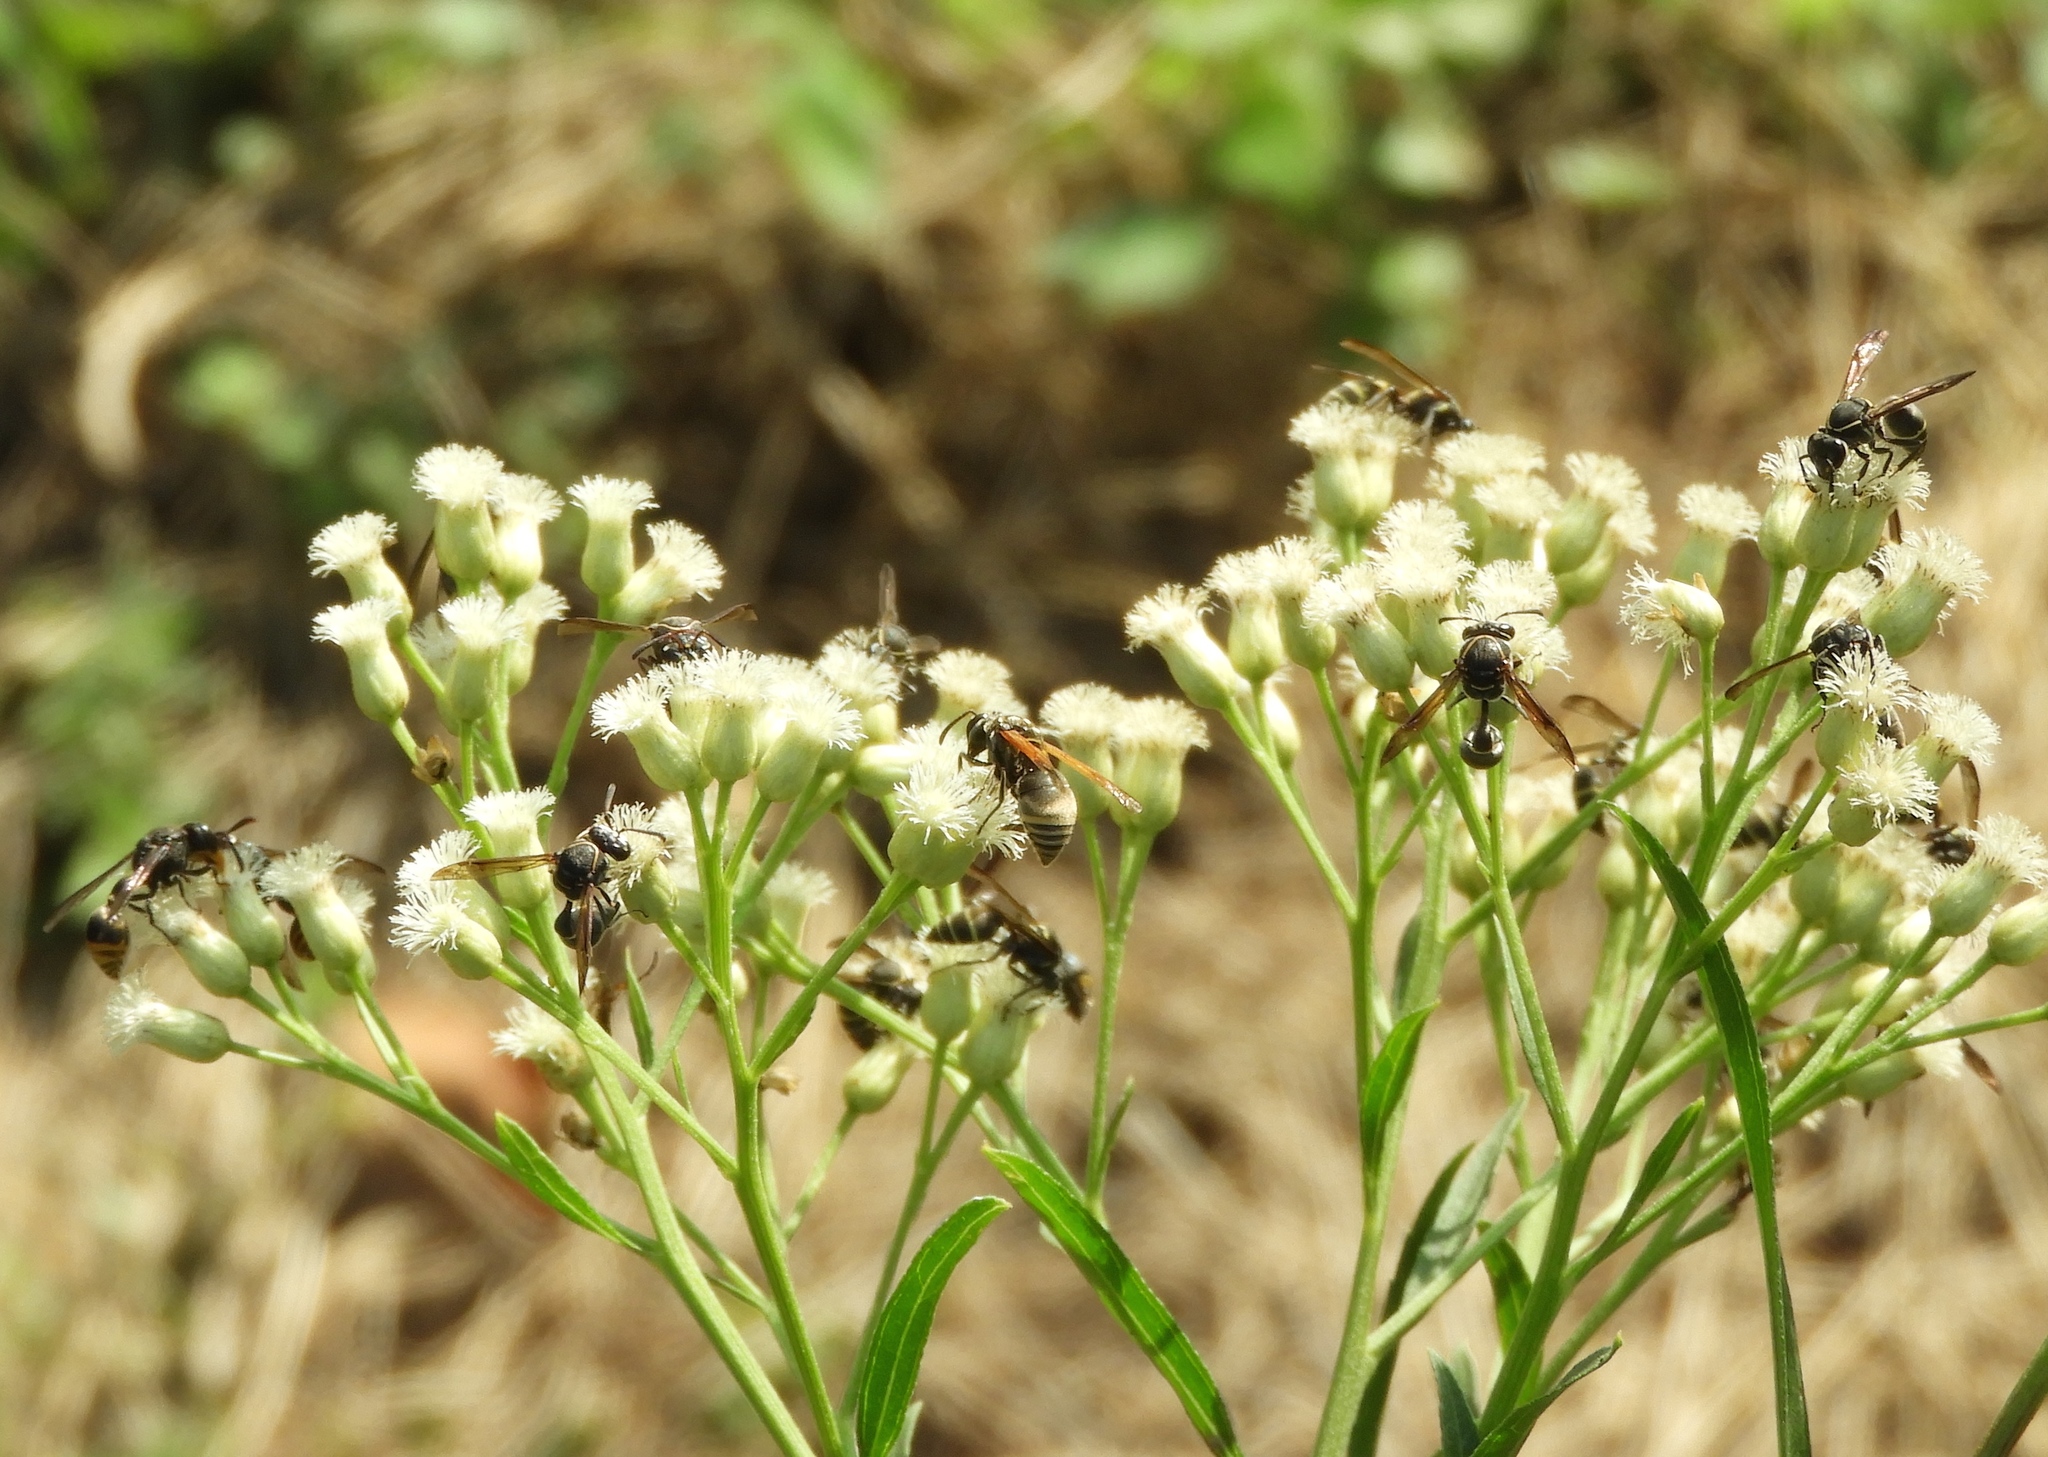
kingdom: Plantae
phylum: Tracheophyta
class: Magnoliopsida
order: Asterales
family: Asteraceae
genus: Baccharis
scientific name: Baccharis salicifolia
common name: Sticky baccharis
